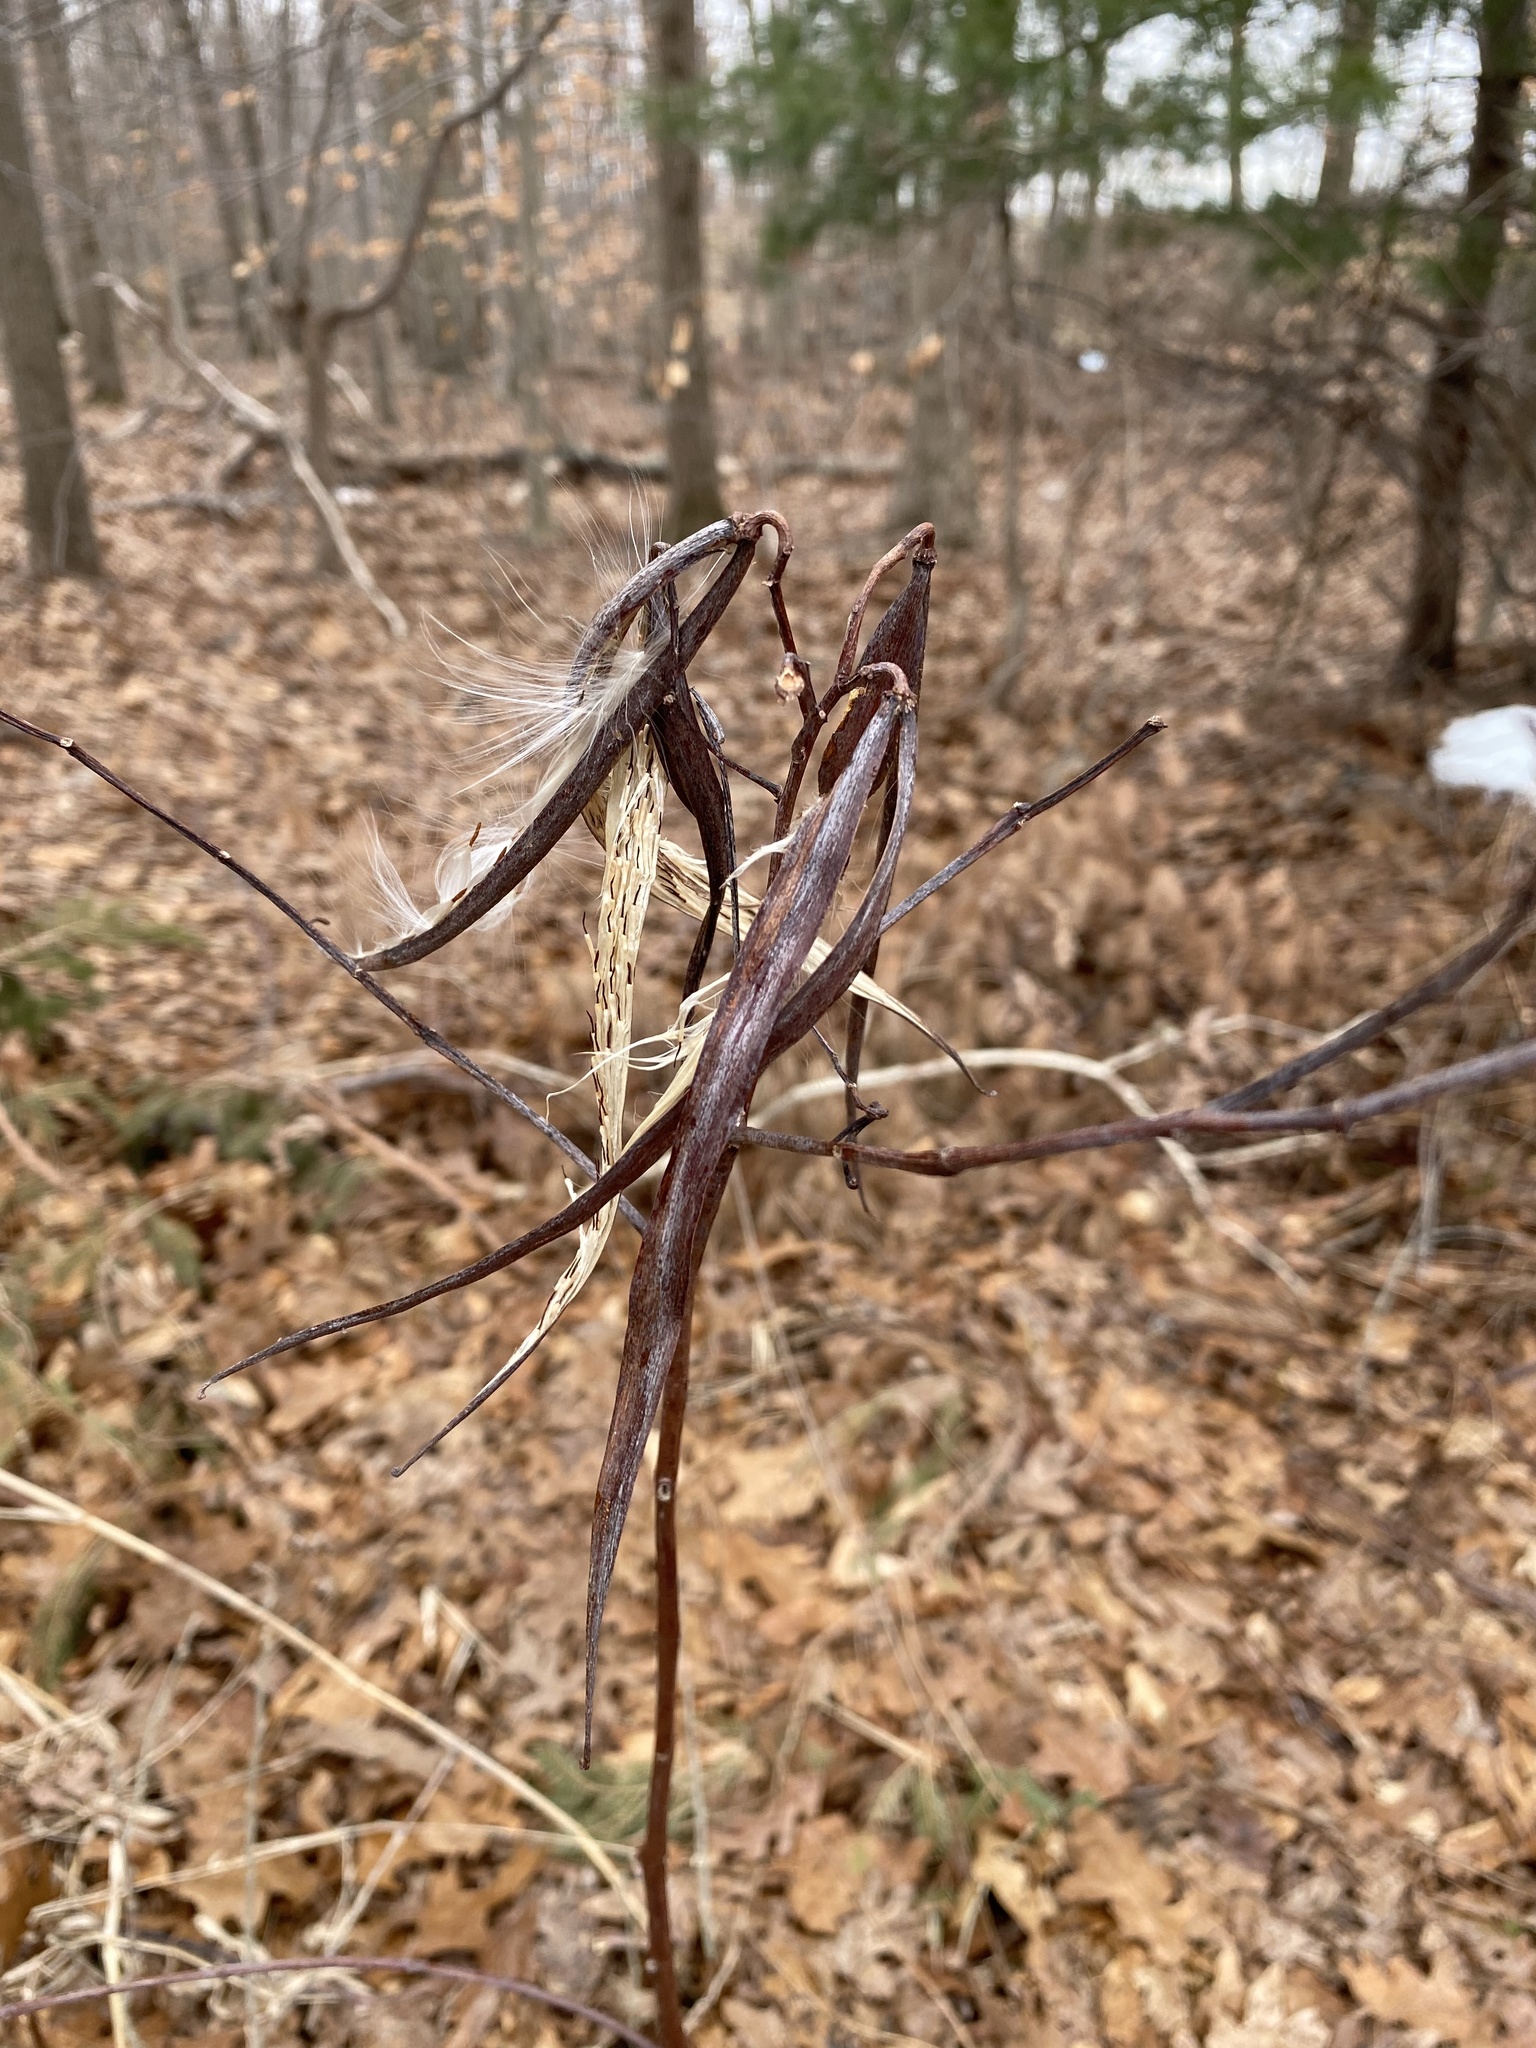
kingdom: Plantae
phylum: Tracheophyta
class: Magnoliopsida
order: Gentianales
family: Apocynaceae
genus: Apocynum
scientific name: Apocynum cannabinum
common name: Hemp dogbane
